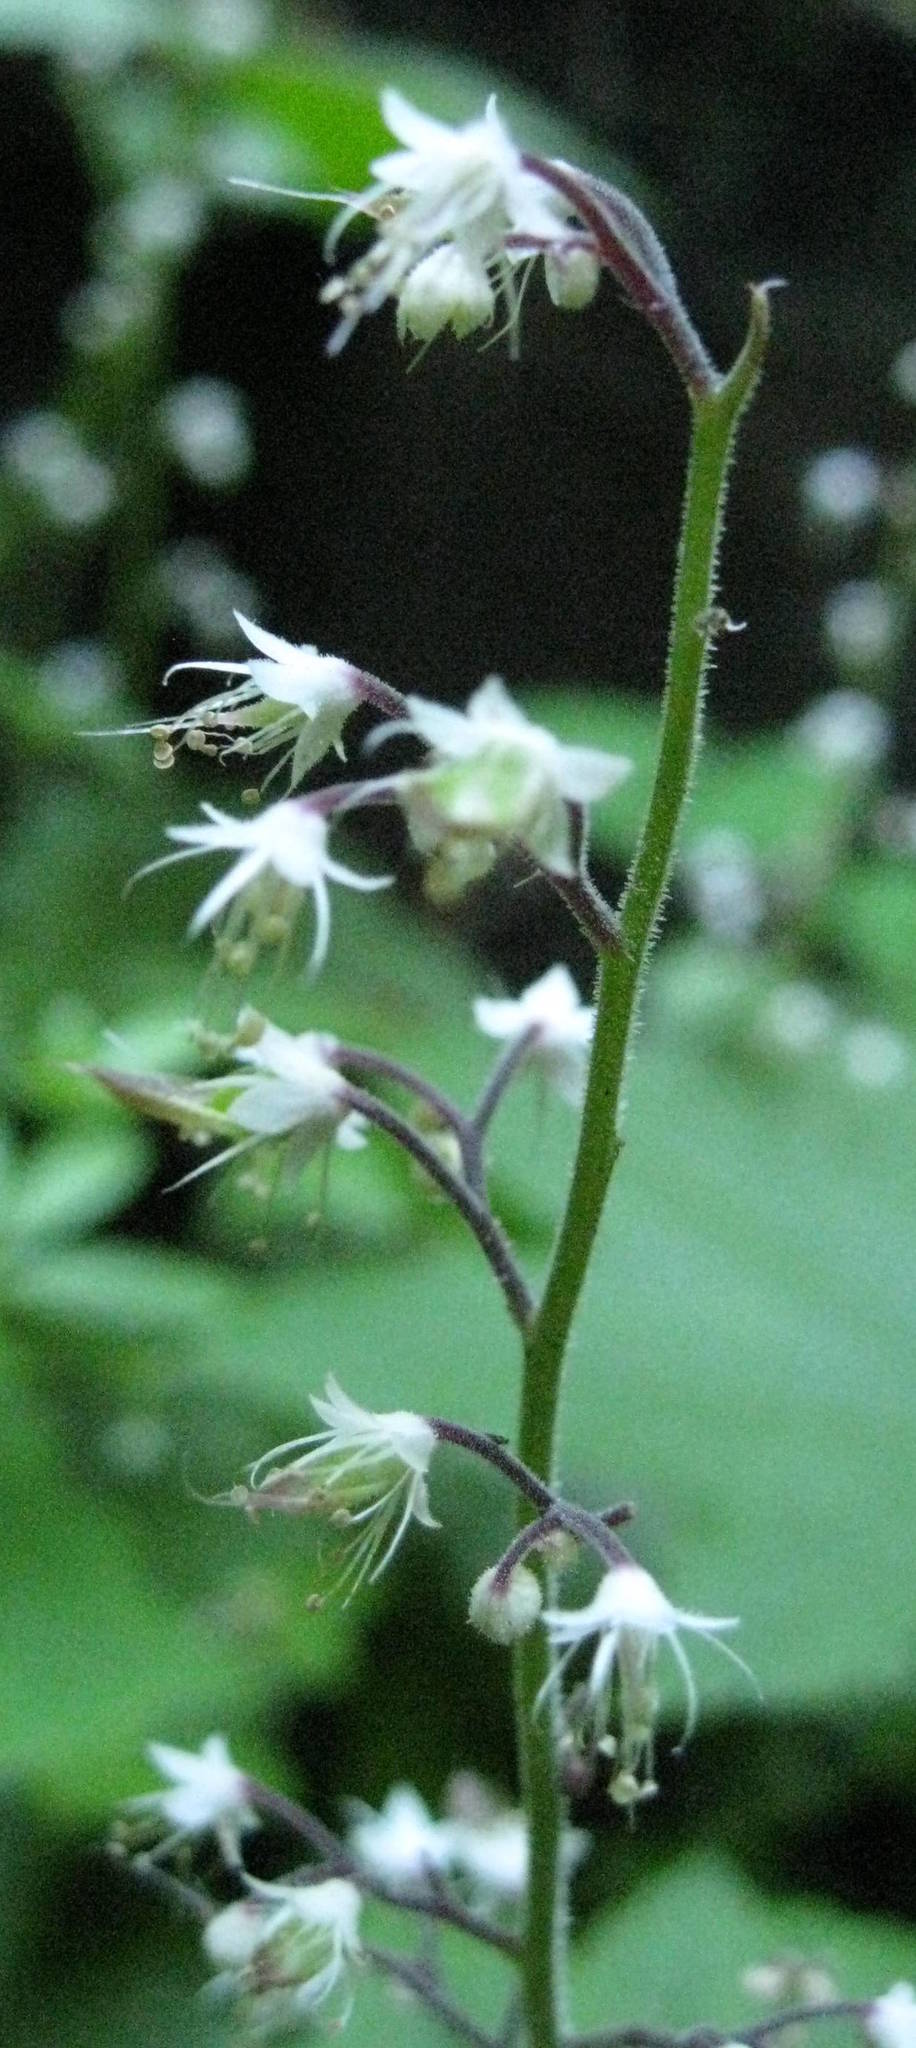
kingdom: Plantae
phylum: Tracheophyta
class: Magnoliopsida
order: Saxifragales
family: Saxifragaceae
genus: Tiarella
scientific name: Tiarella trifoliata
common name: Sugar-scoop
